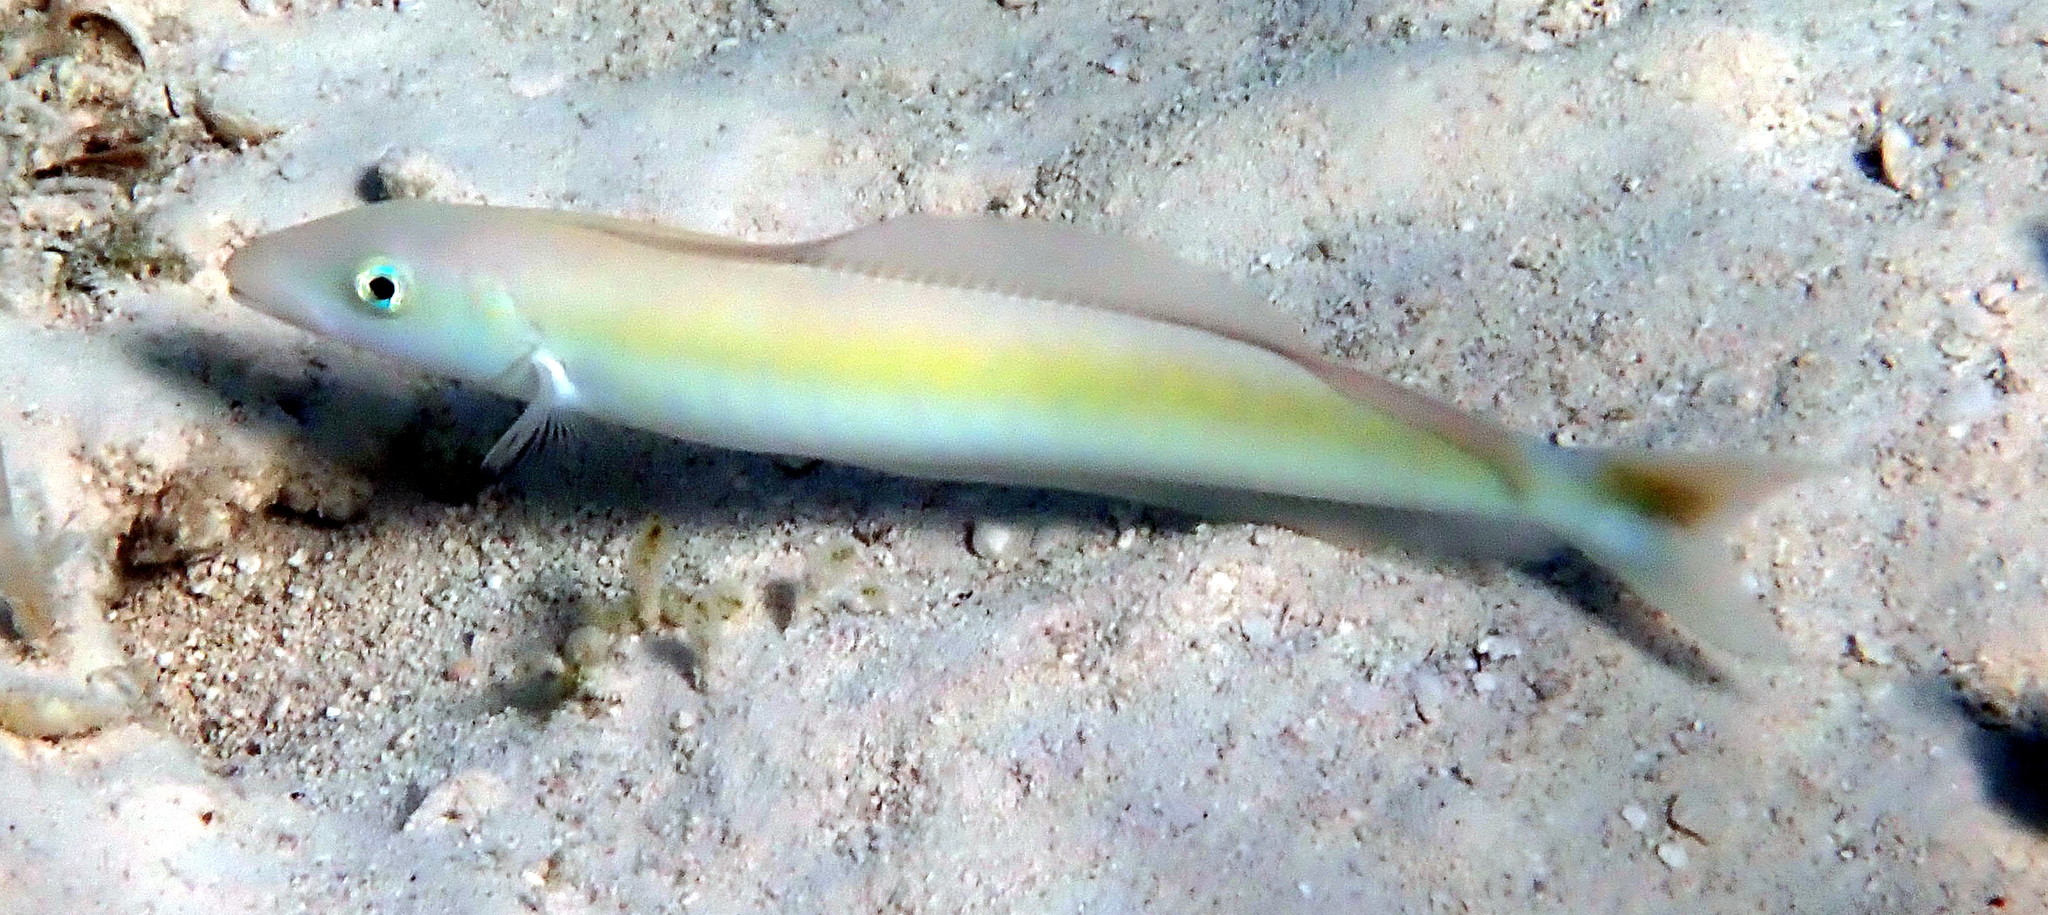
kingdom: Animalia
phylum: Chordata
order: Perciformes
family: Malacanthidae
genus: Malacanthus
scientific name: Malacanthus plumieri
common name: Sand tilefish
